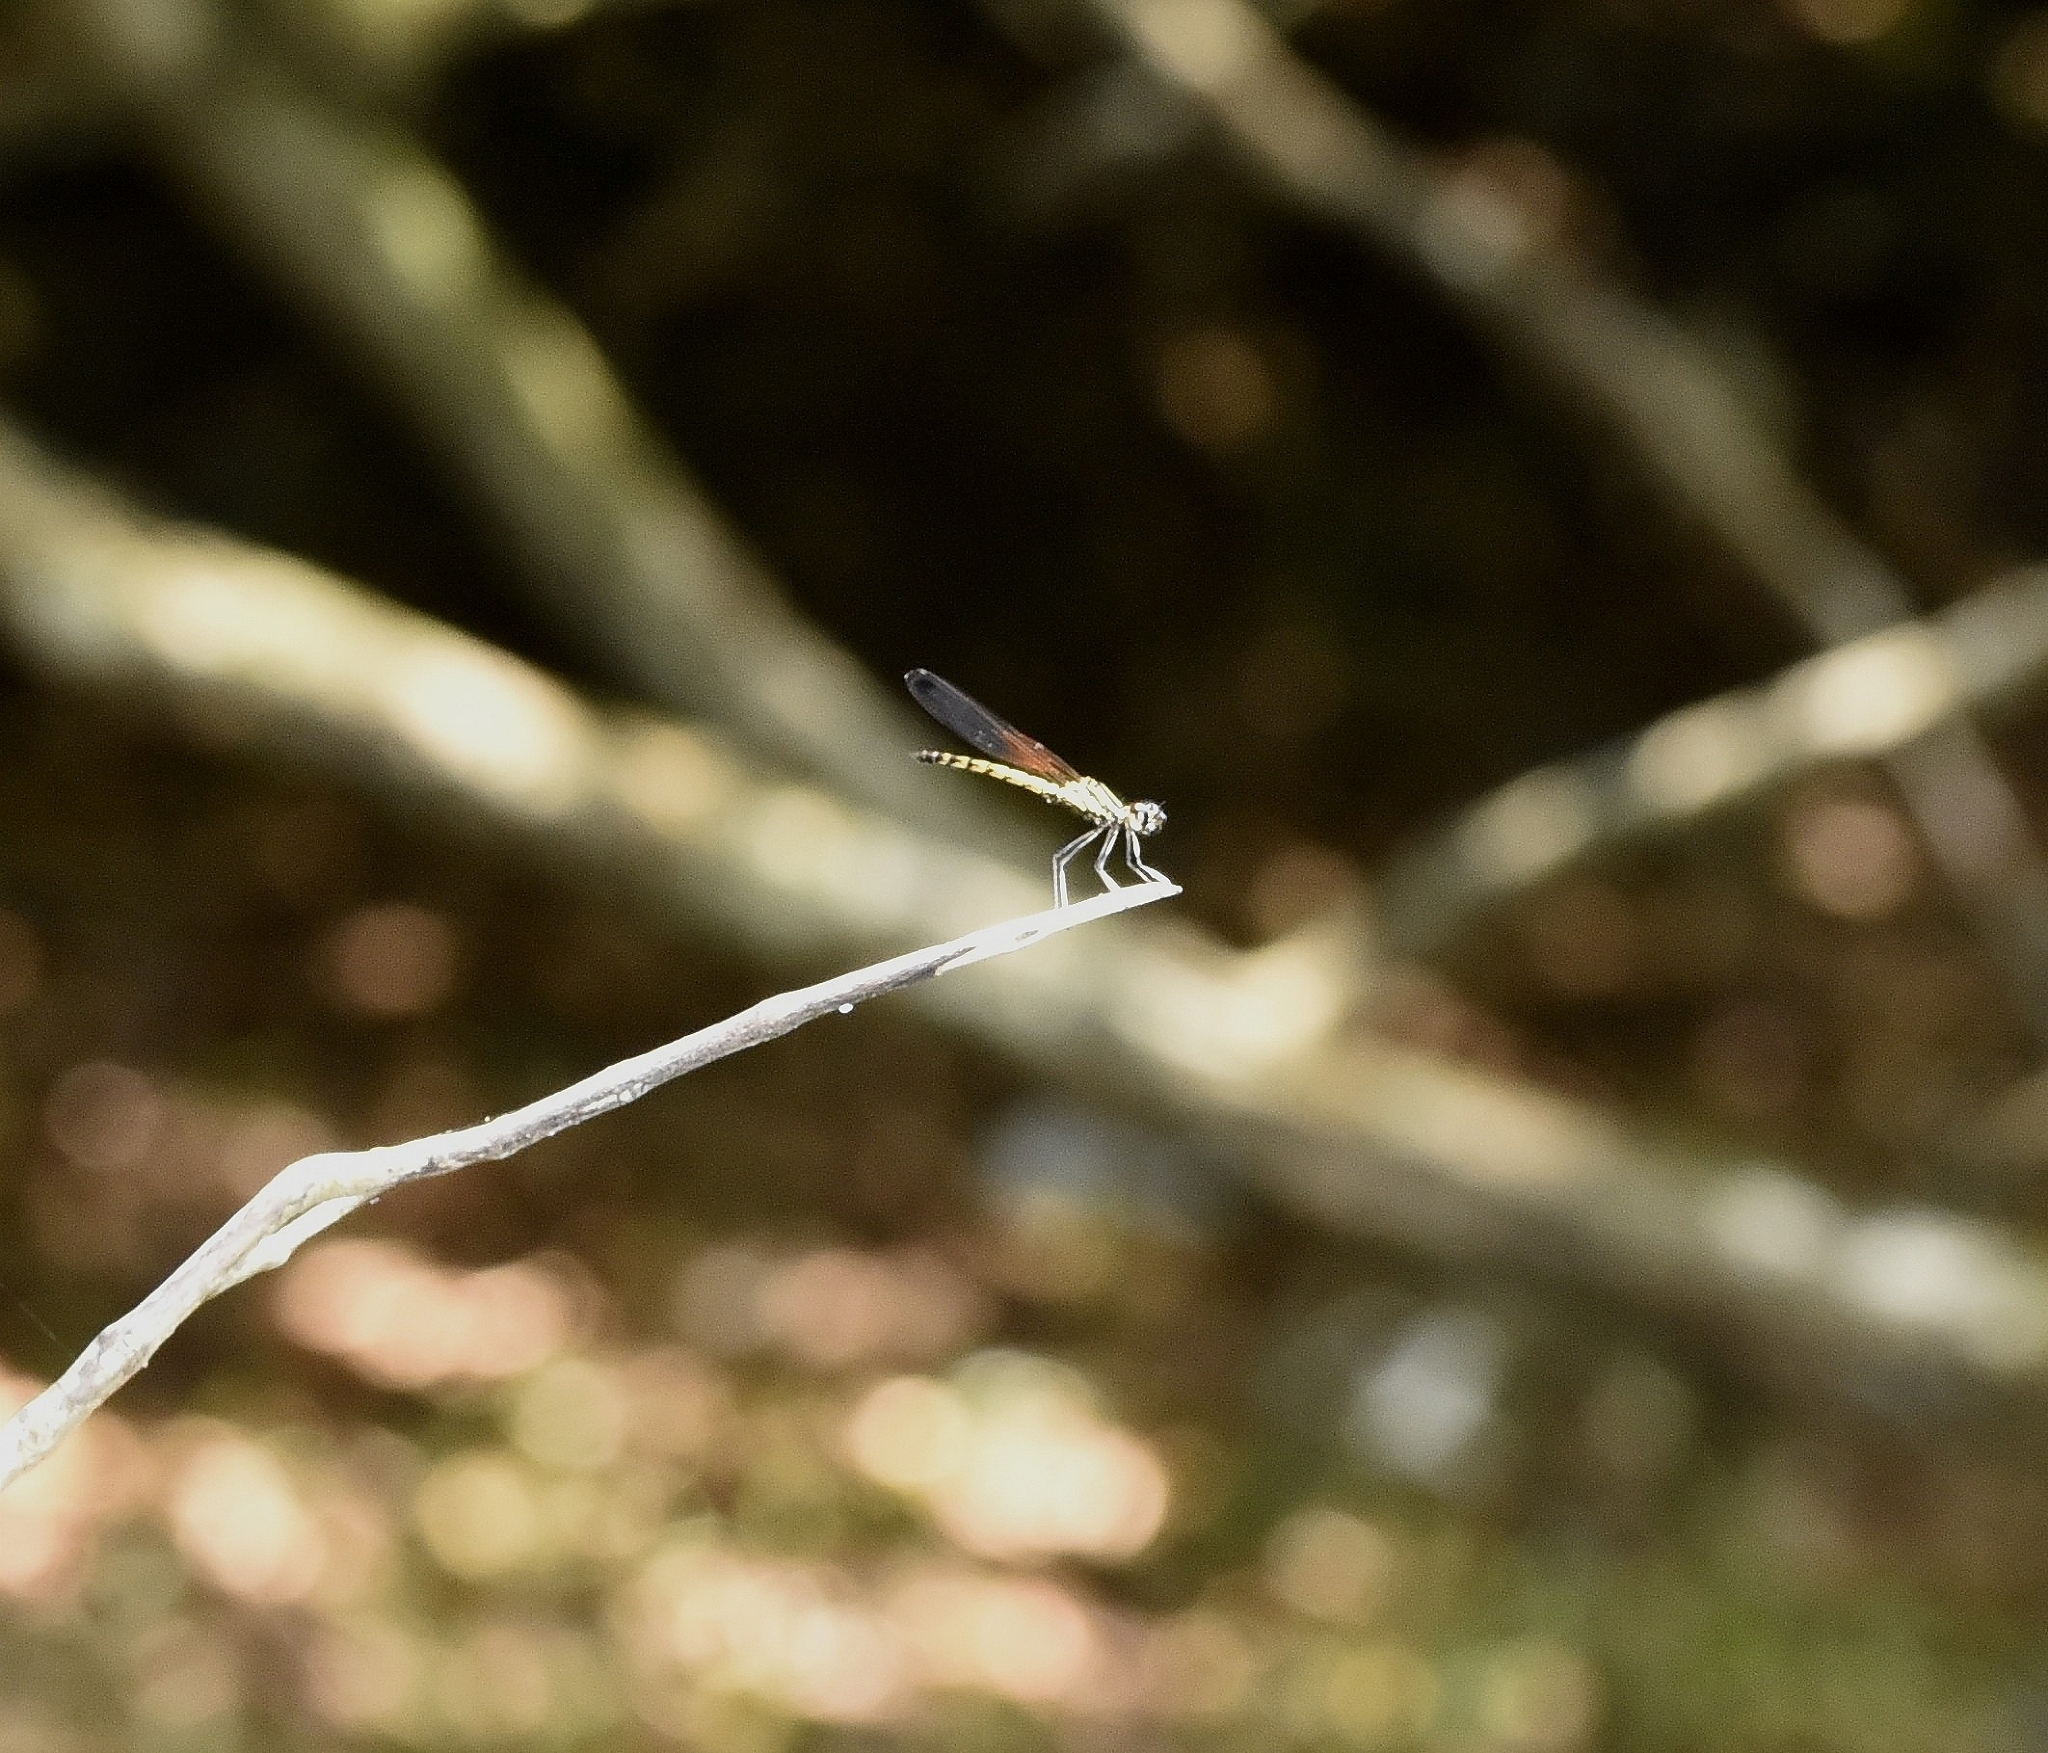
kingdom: Animalia
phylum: Arthropoda
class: Insecta
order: Odonata
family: Chlorocyphidae
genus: Libellago
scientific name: Libellago indica
